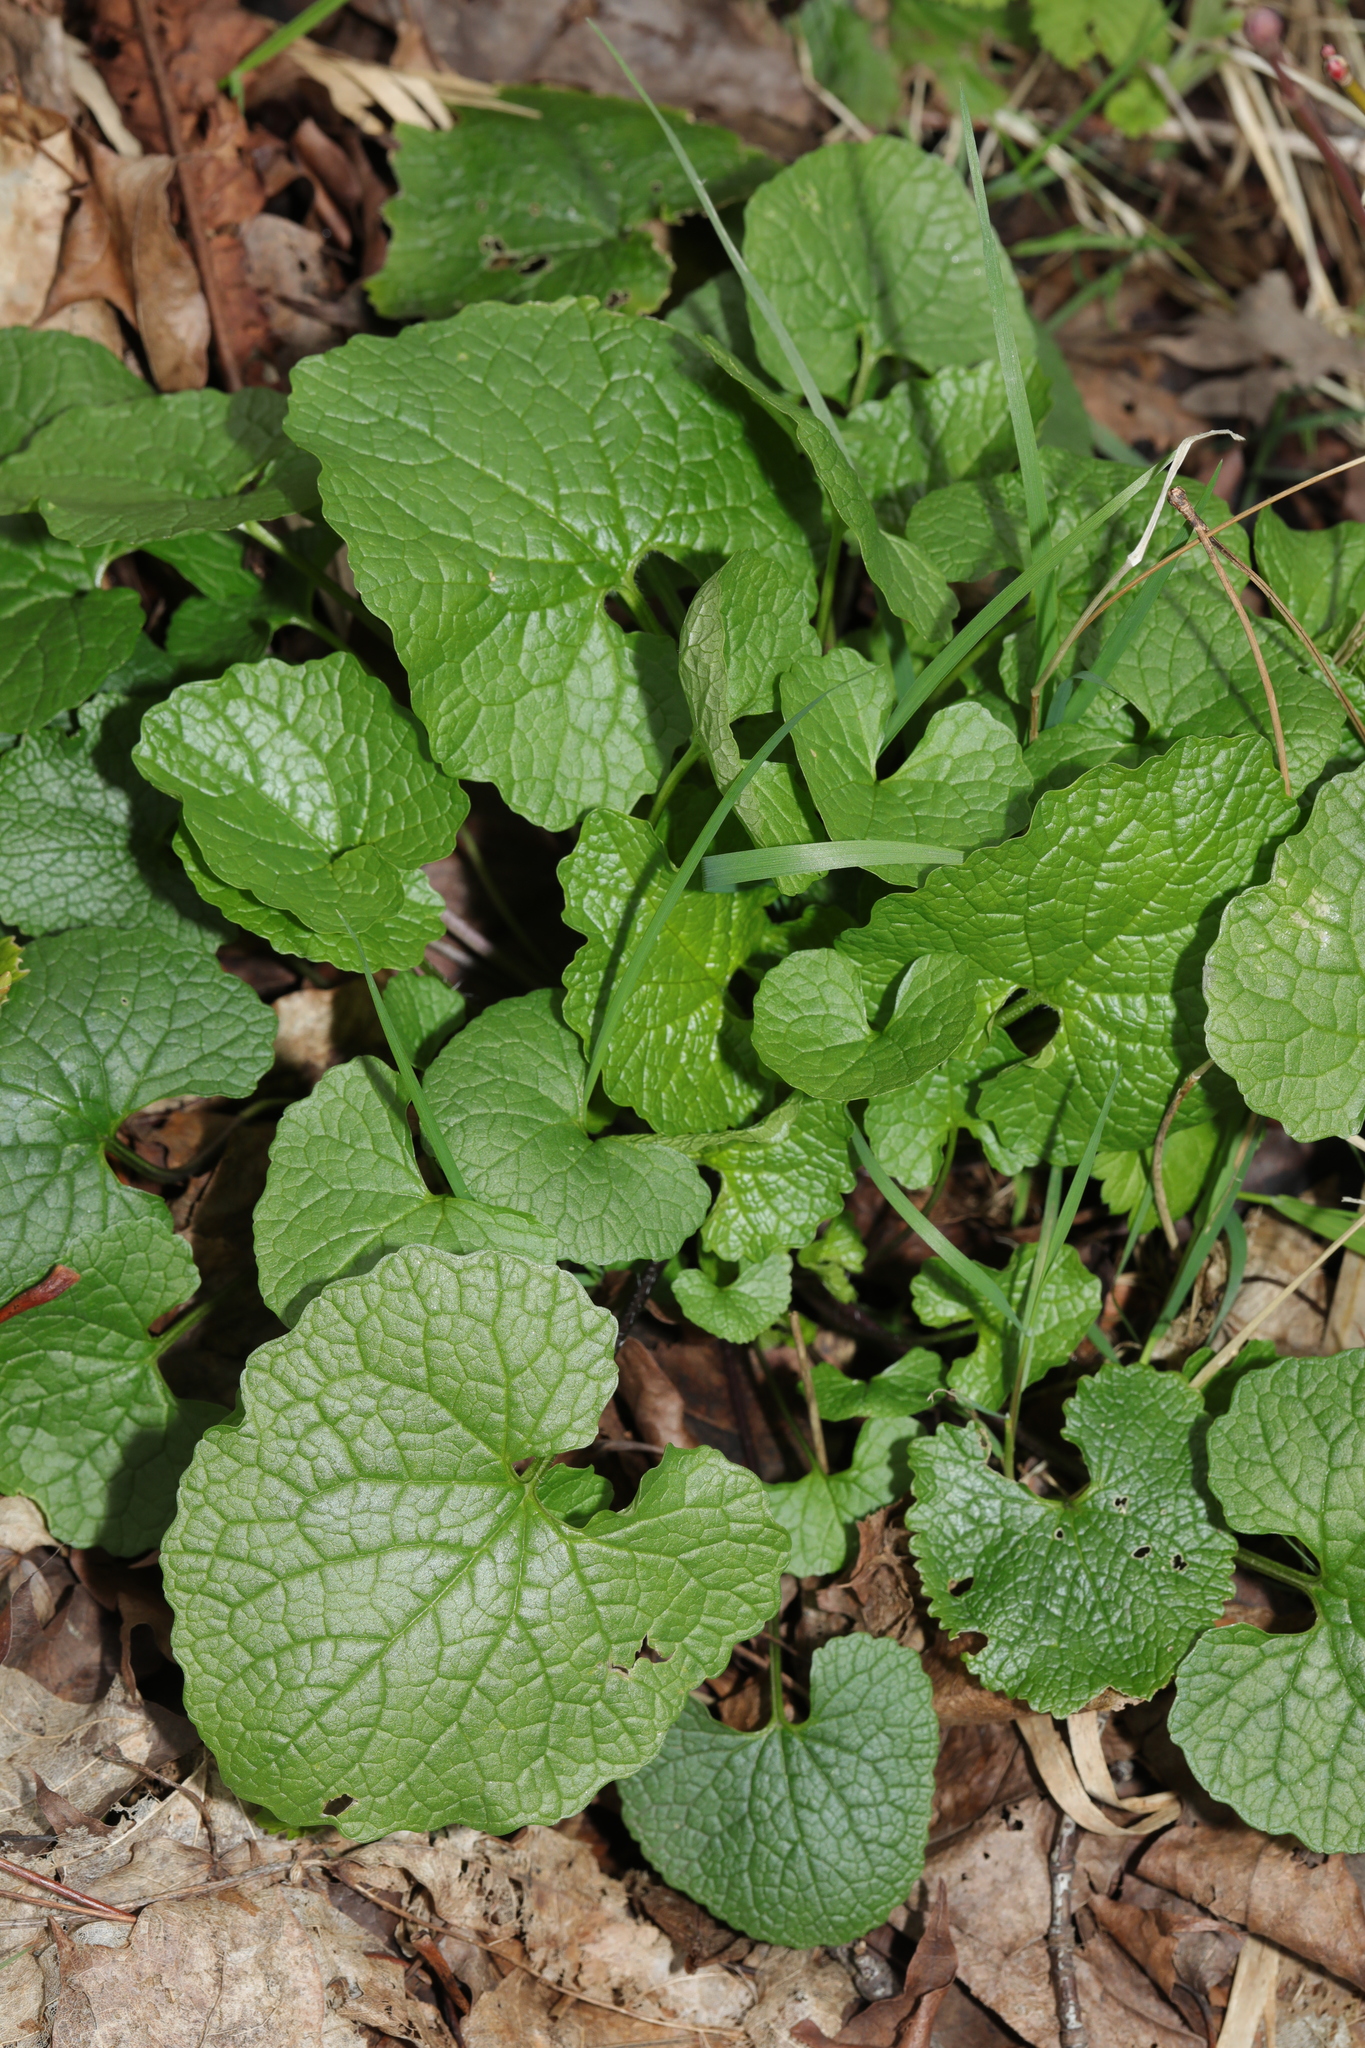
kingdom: Plantae
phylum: Tracheophyta
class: Magnoliopsida
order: Brassicales
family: Brassicaceae
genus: Alliaria
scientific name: Alliaria petiolata
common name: Garlic mustard
